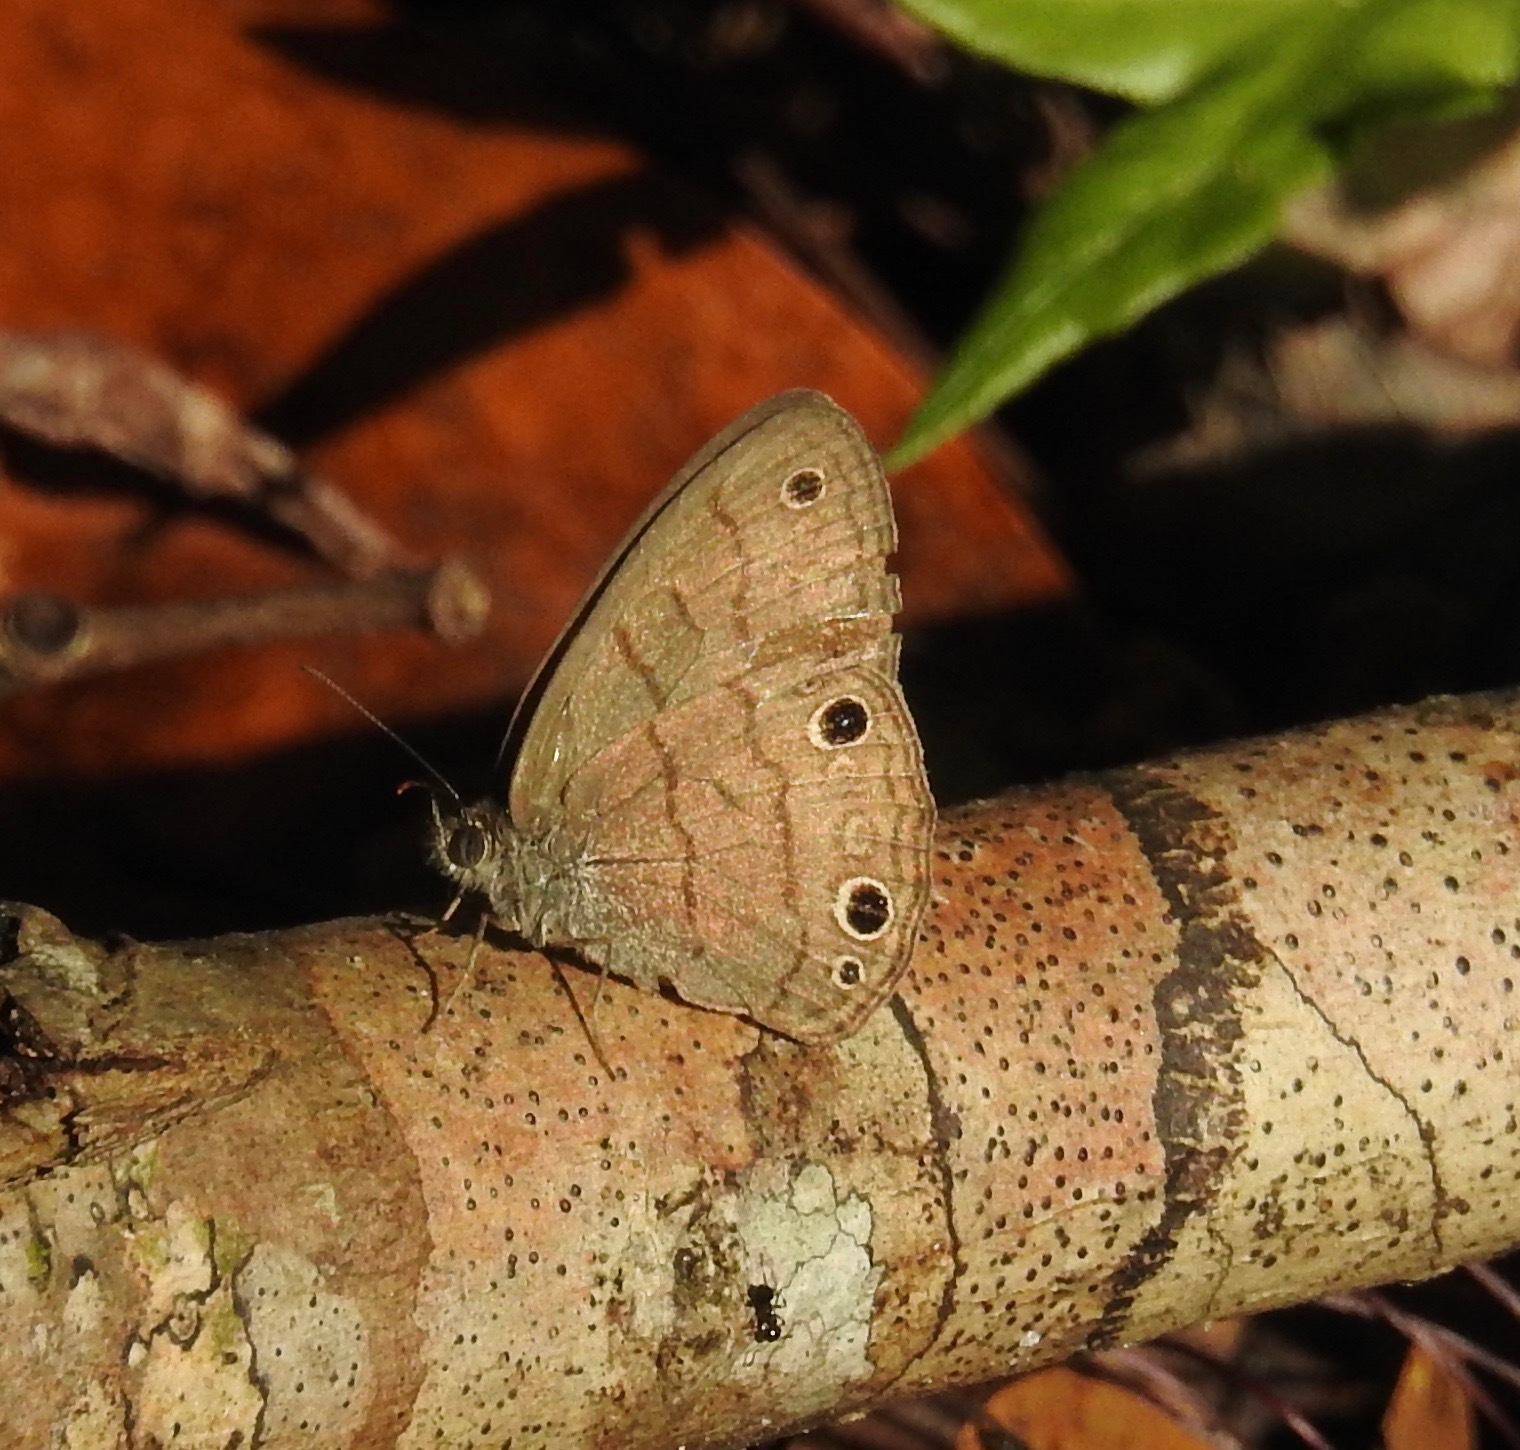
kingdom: Animalia
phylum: Arthropoda
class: Insecta
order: Lepidoptera
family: Nymphalidae
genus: Hermeuptychia
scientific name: Hermeuptychia hermes
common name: Hermes satyr
